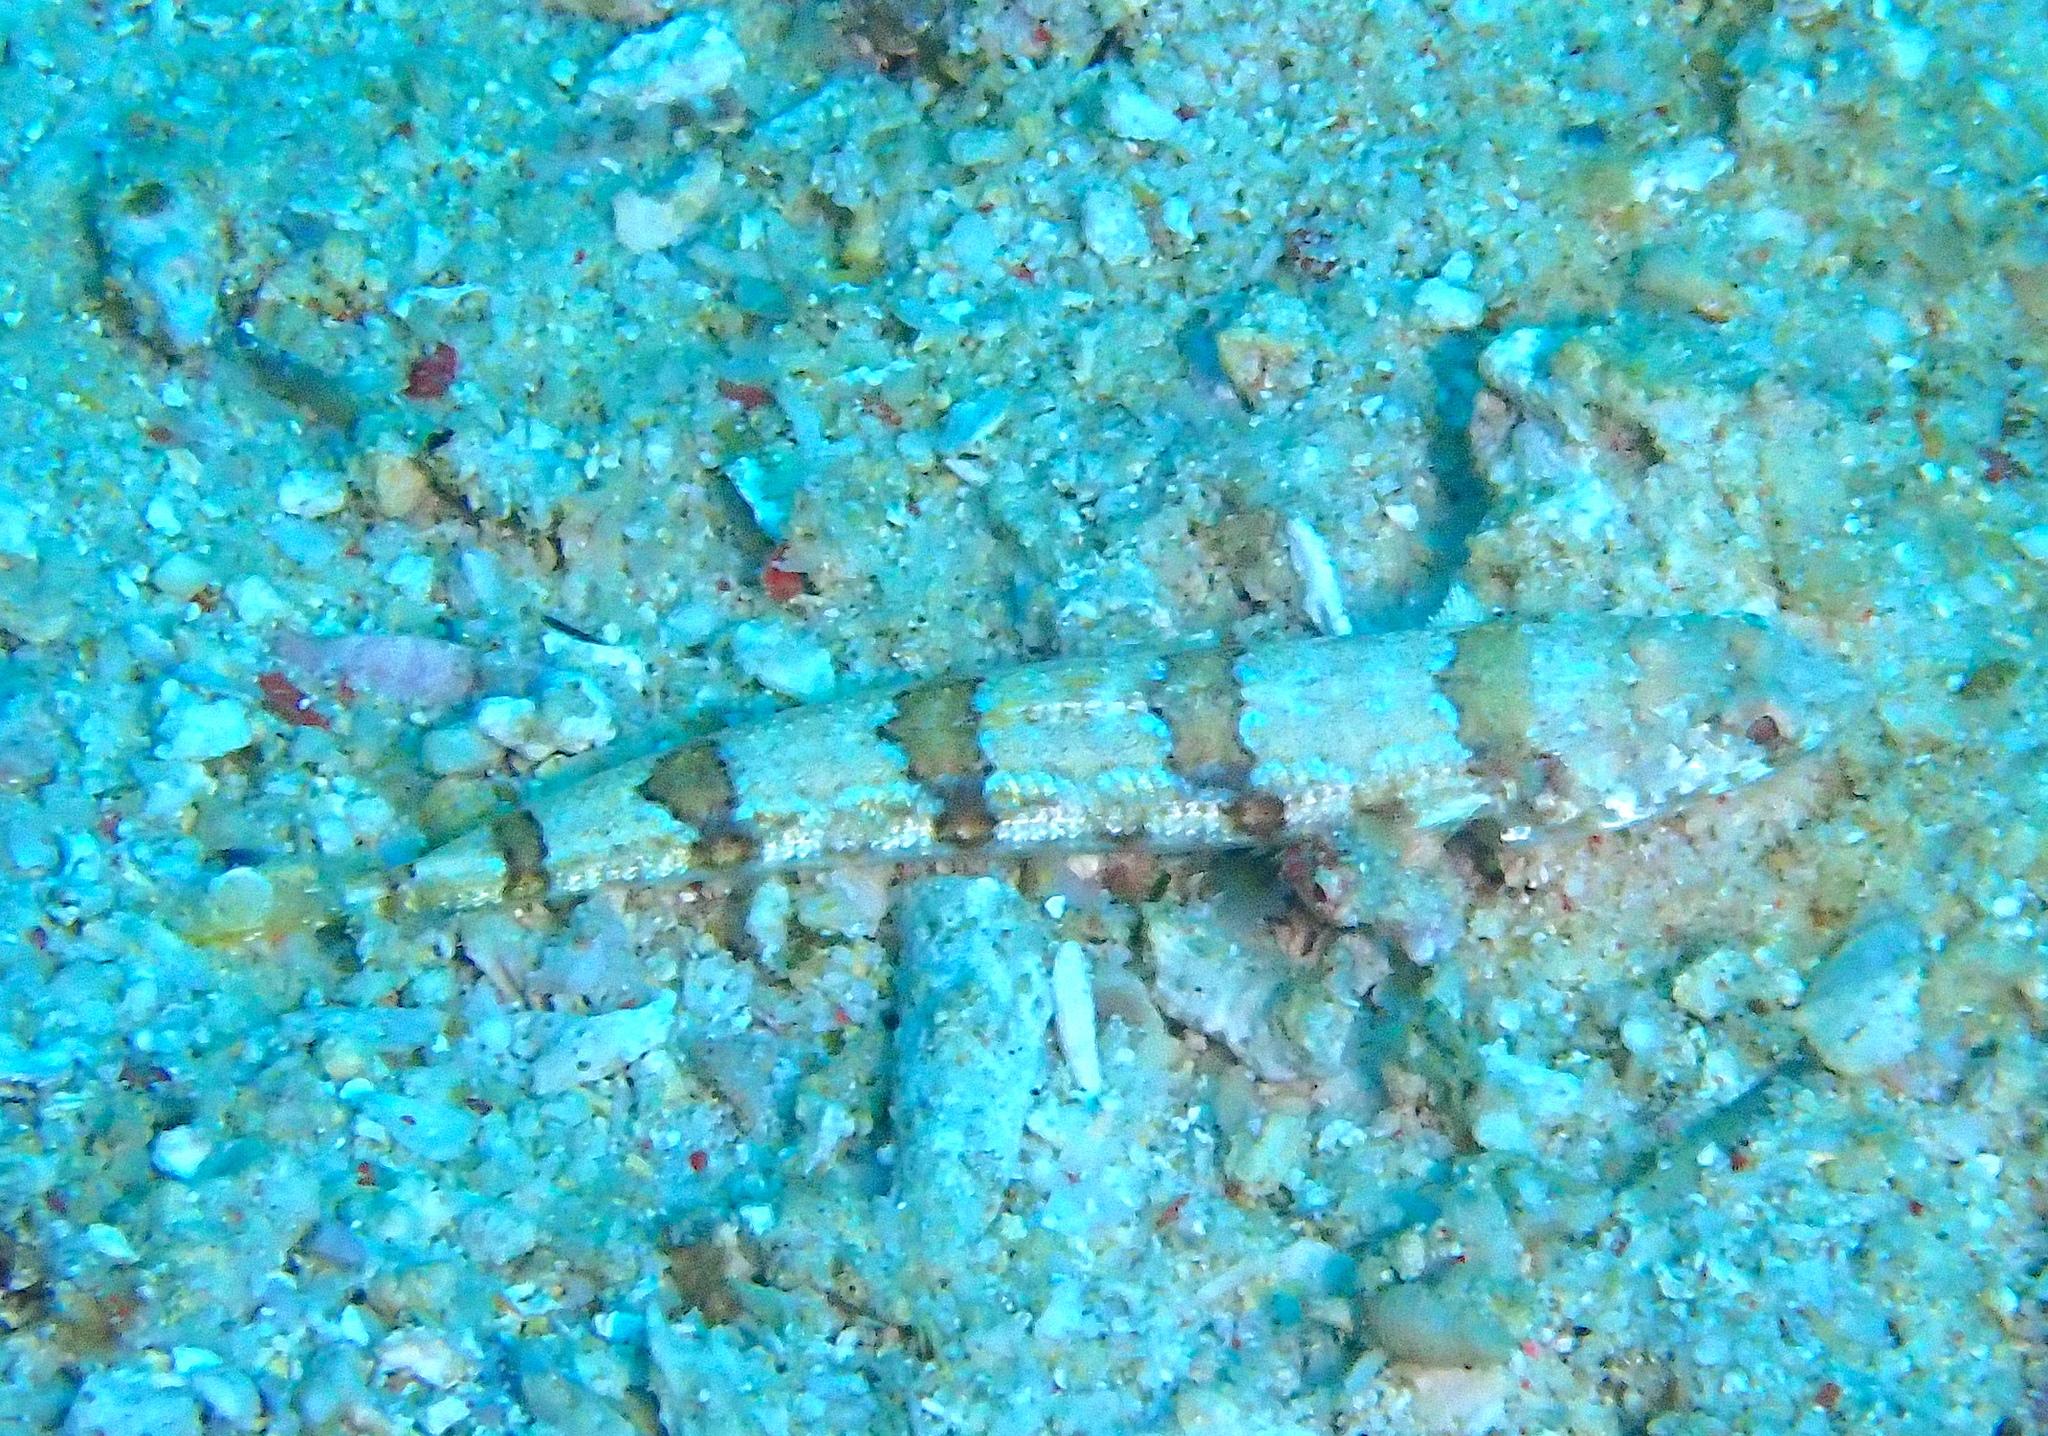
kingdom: Animalia
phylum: Chordata
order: Aulopiformes
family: Synodontidae
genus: Synodus
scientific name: Synodus rubromarmoratus
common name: Redmarbled lizardfish
